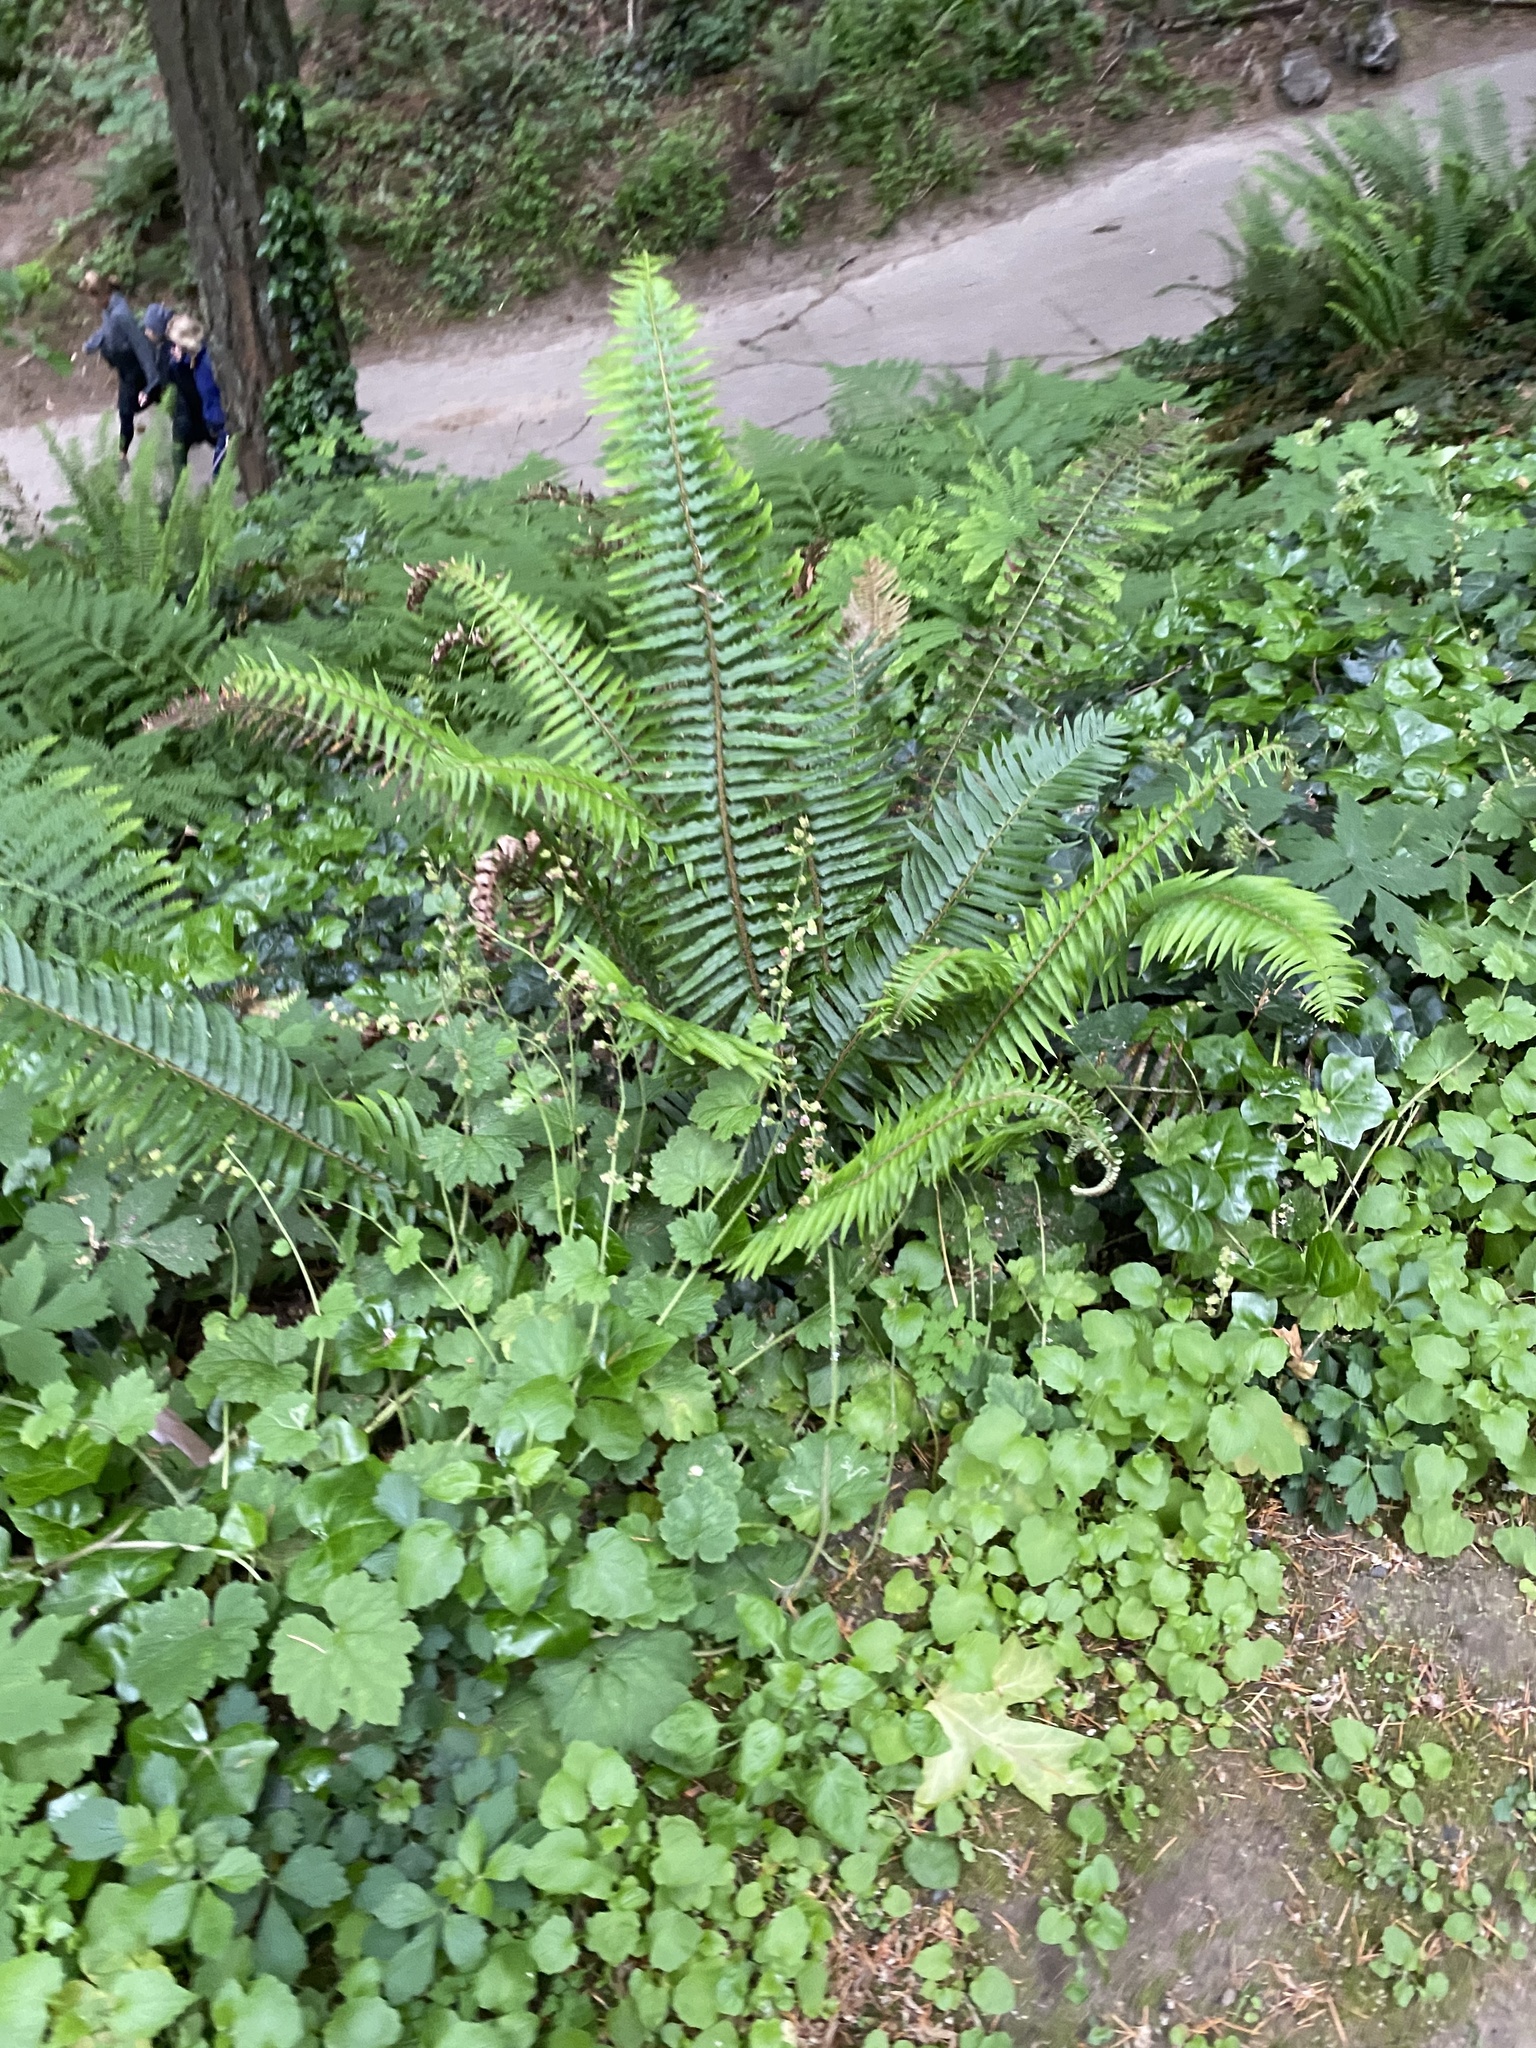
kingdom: Plantae
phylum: Tracheophyta
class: Polypodiopsida
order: Polypodiales
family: Dryopteridaceae
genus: Polystichum
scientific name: Polystichum munitum
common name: Western sword-fern
